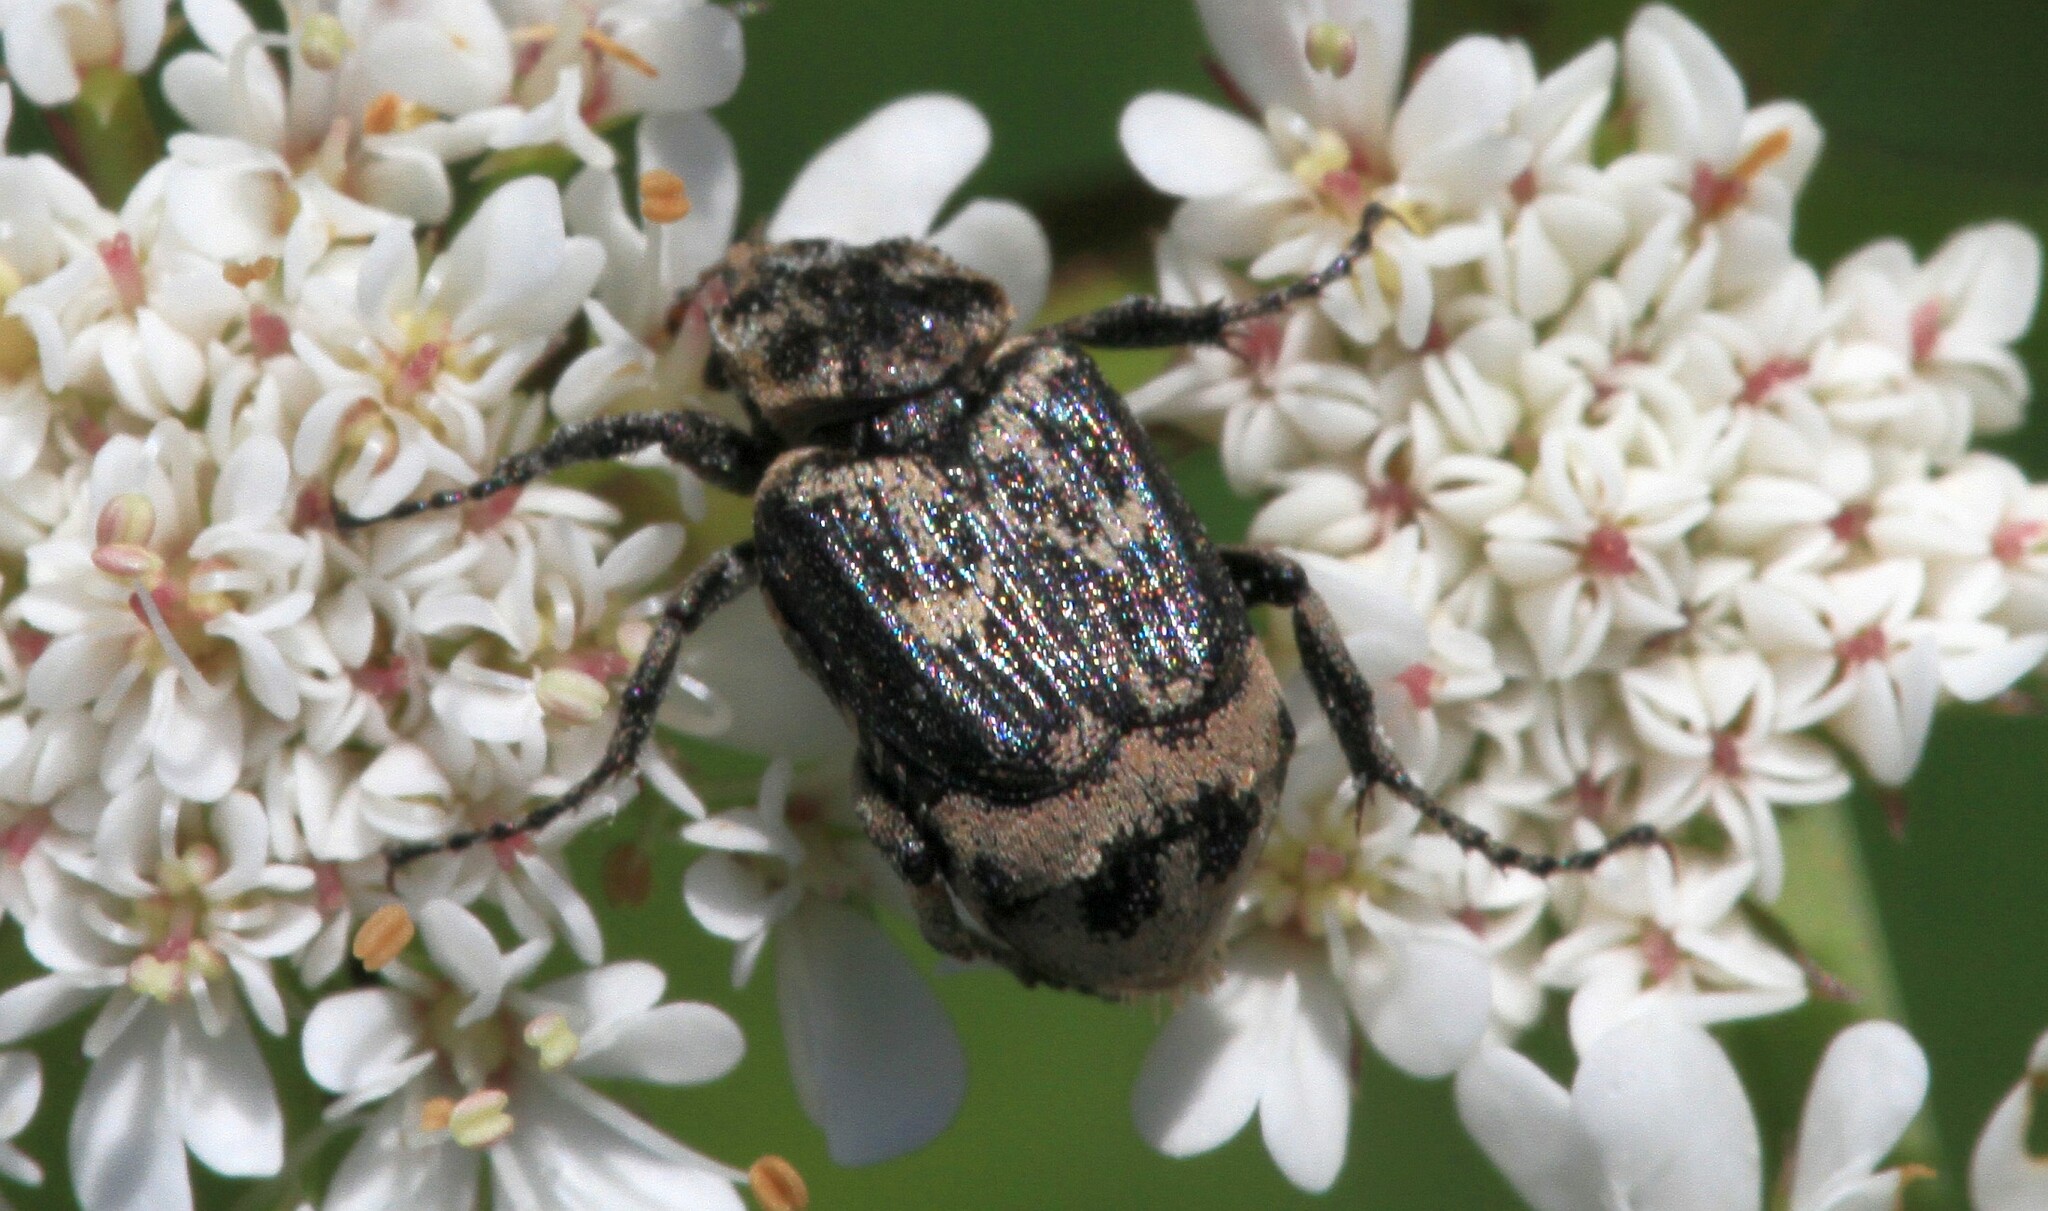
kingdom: Animalia
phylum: Arthropoda
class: Insecta
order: Coleoptera
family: Scarabaeidae
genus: Valgus
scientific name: Valgus hemipterus
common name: Bug flower chafer
